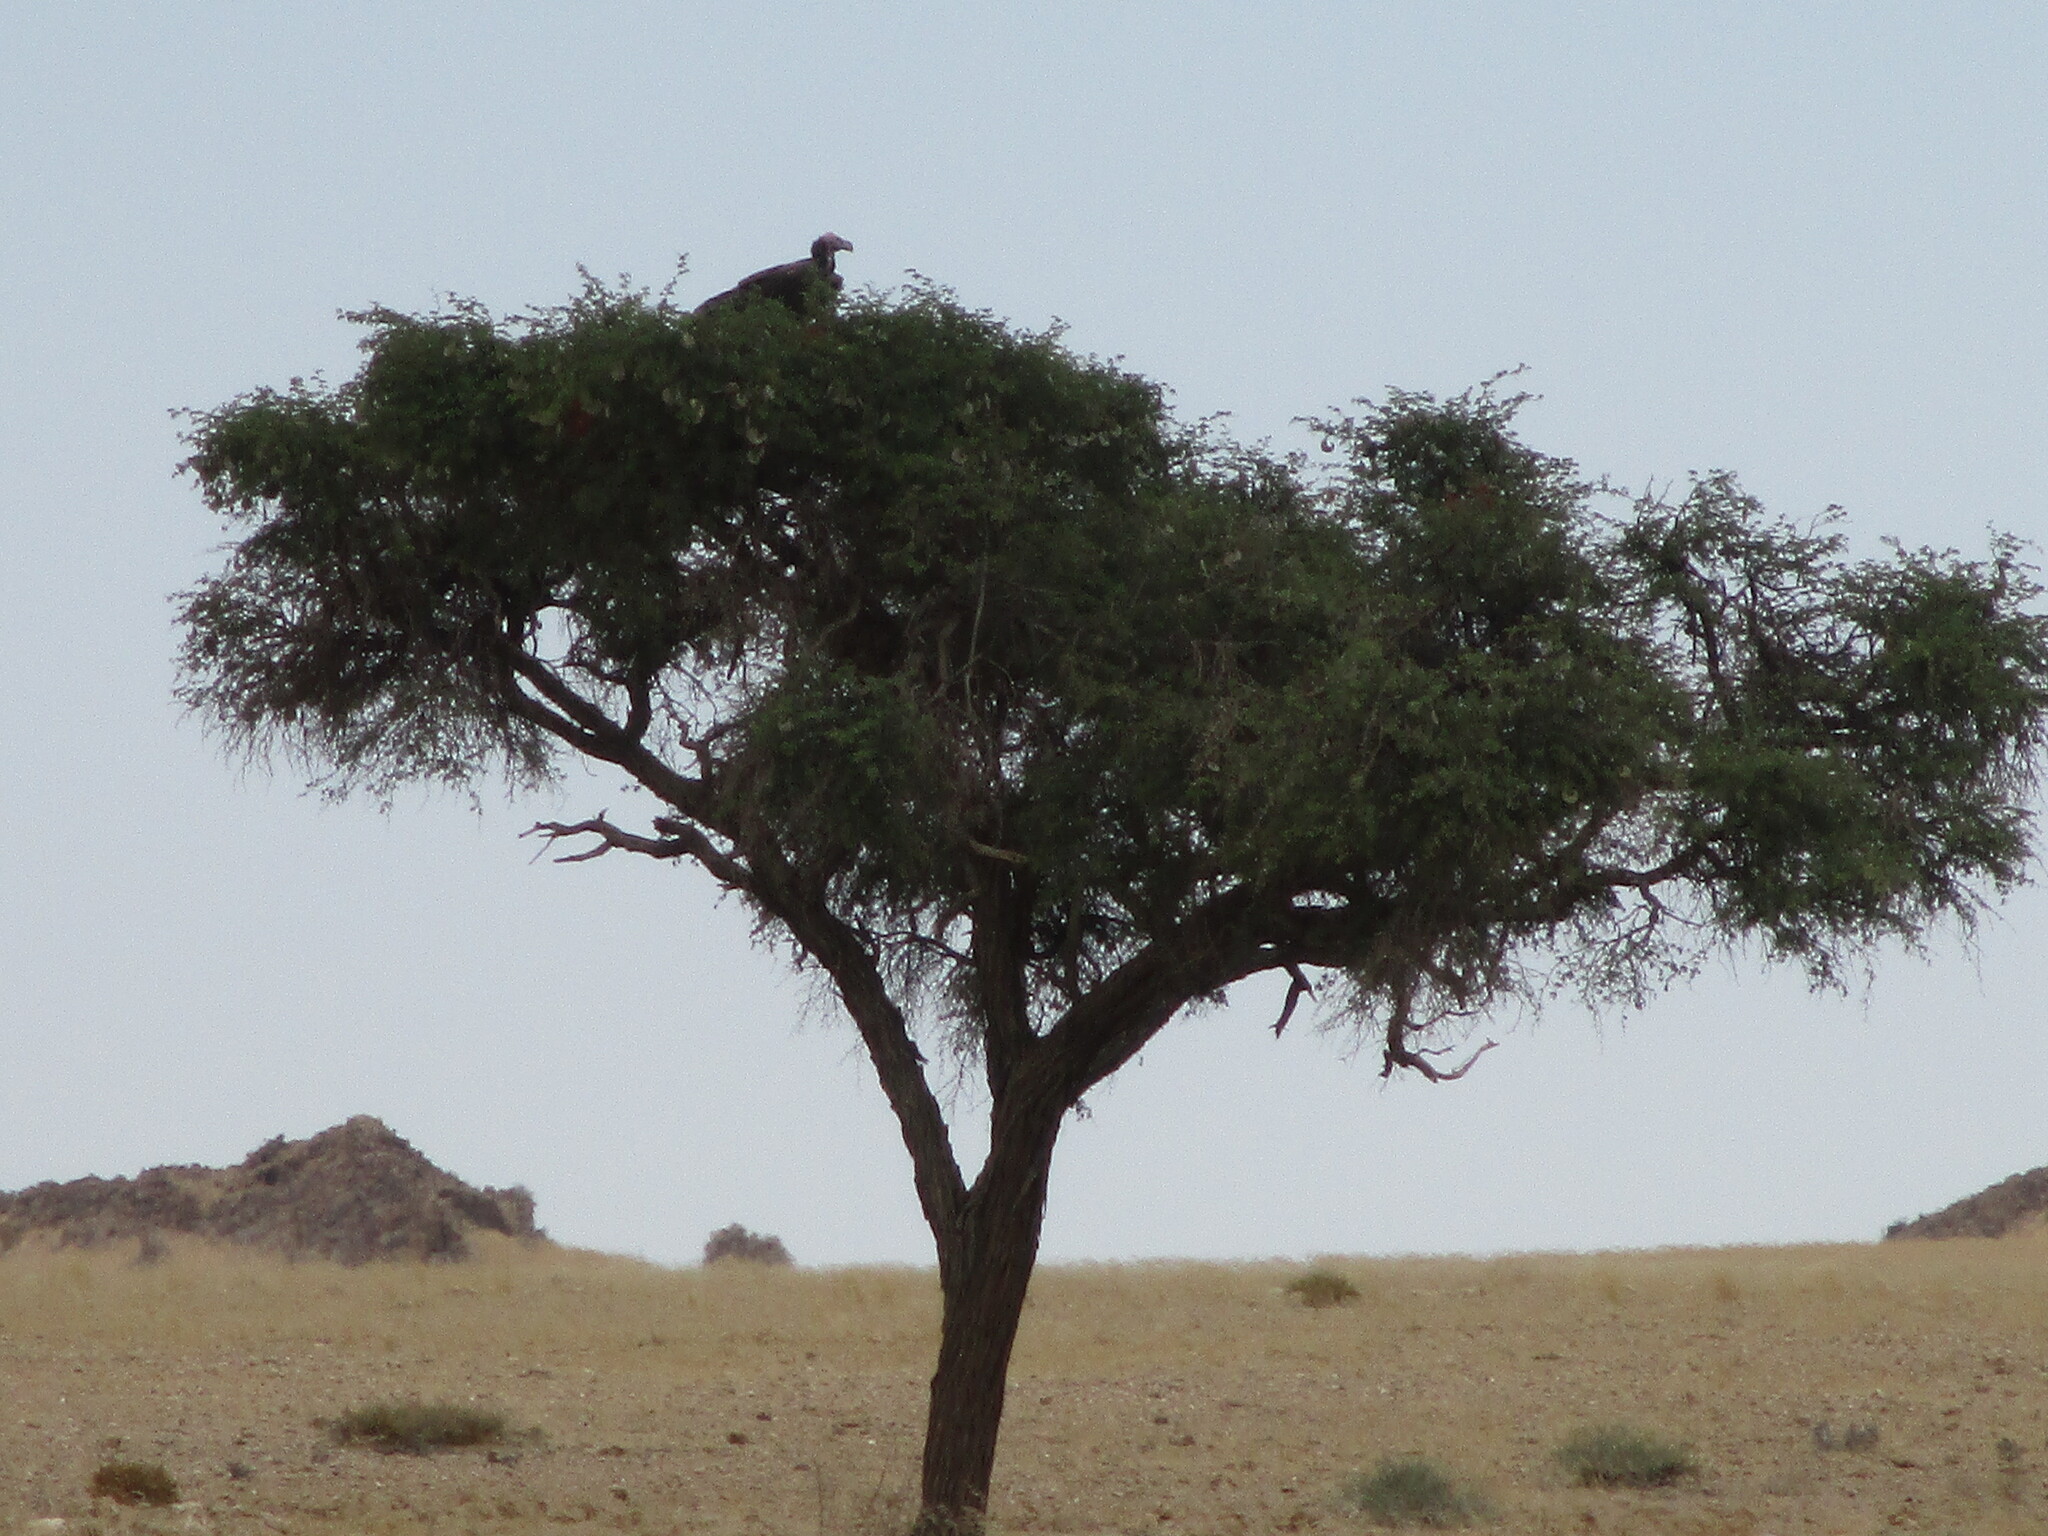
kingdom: Animalia
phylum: Chordata
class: Aves
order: Accipitriformes
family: Accipitridae
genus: Torgos
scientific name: Torgos tracheliotos
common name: Lappet-faced vulture
